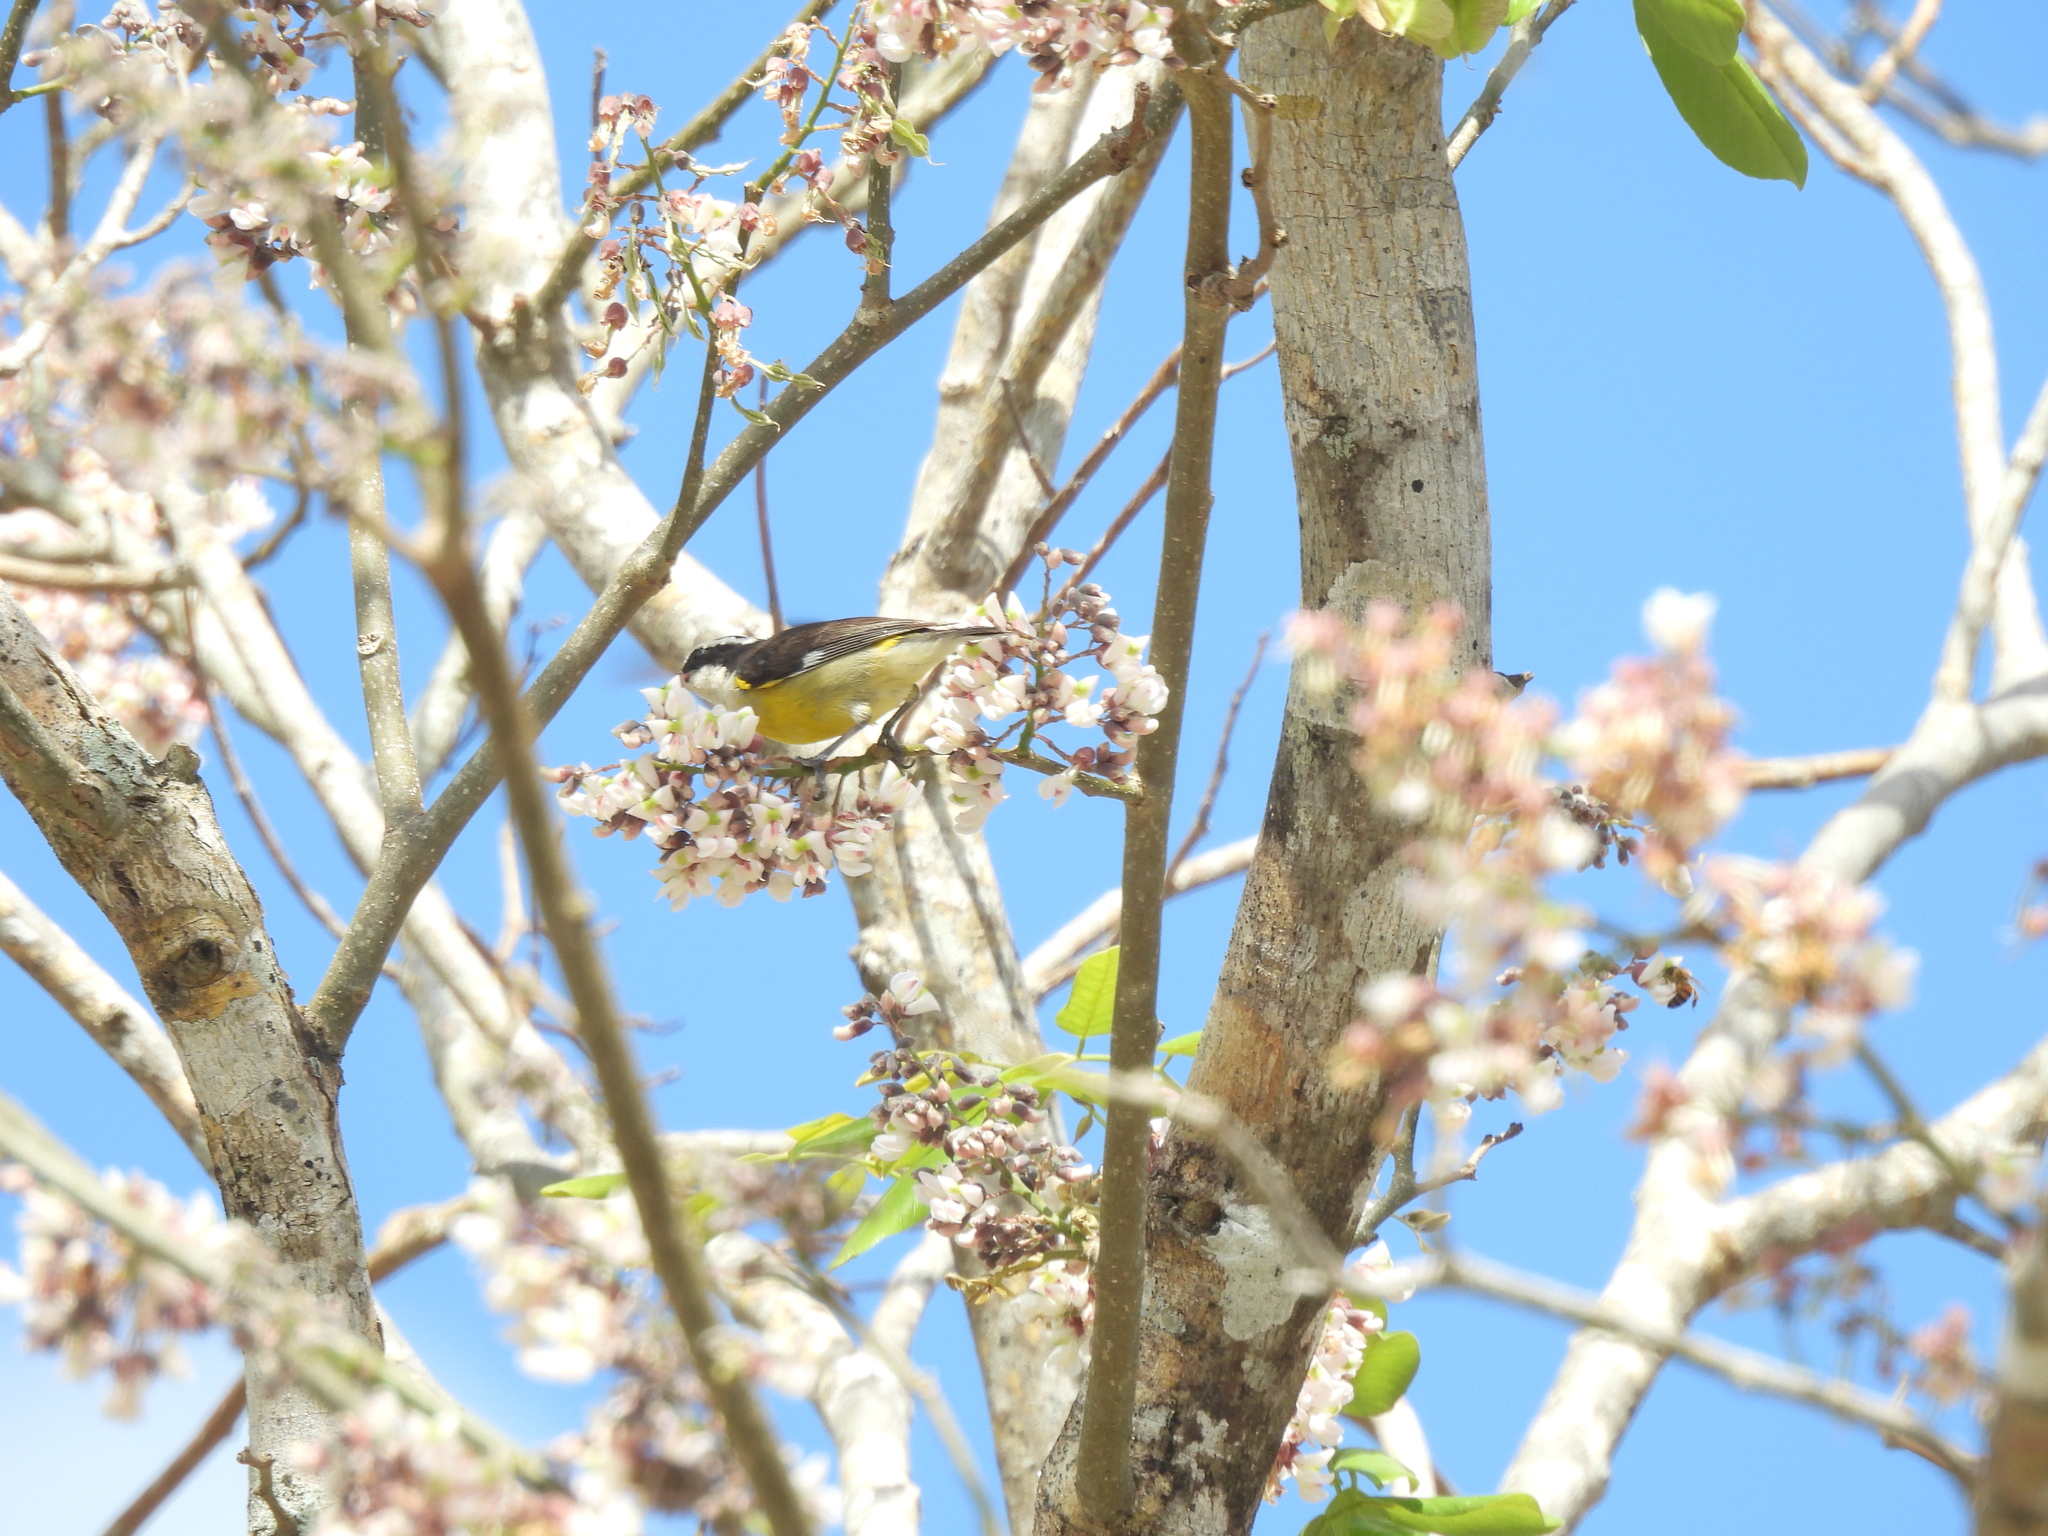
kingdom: Animalia
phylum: Chordata
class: Aves
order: Passeriformes
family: Thraupidae
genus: Coereba
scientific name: Coereba flaveola
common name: Bananaquit
